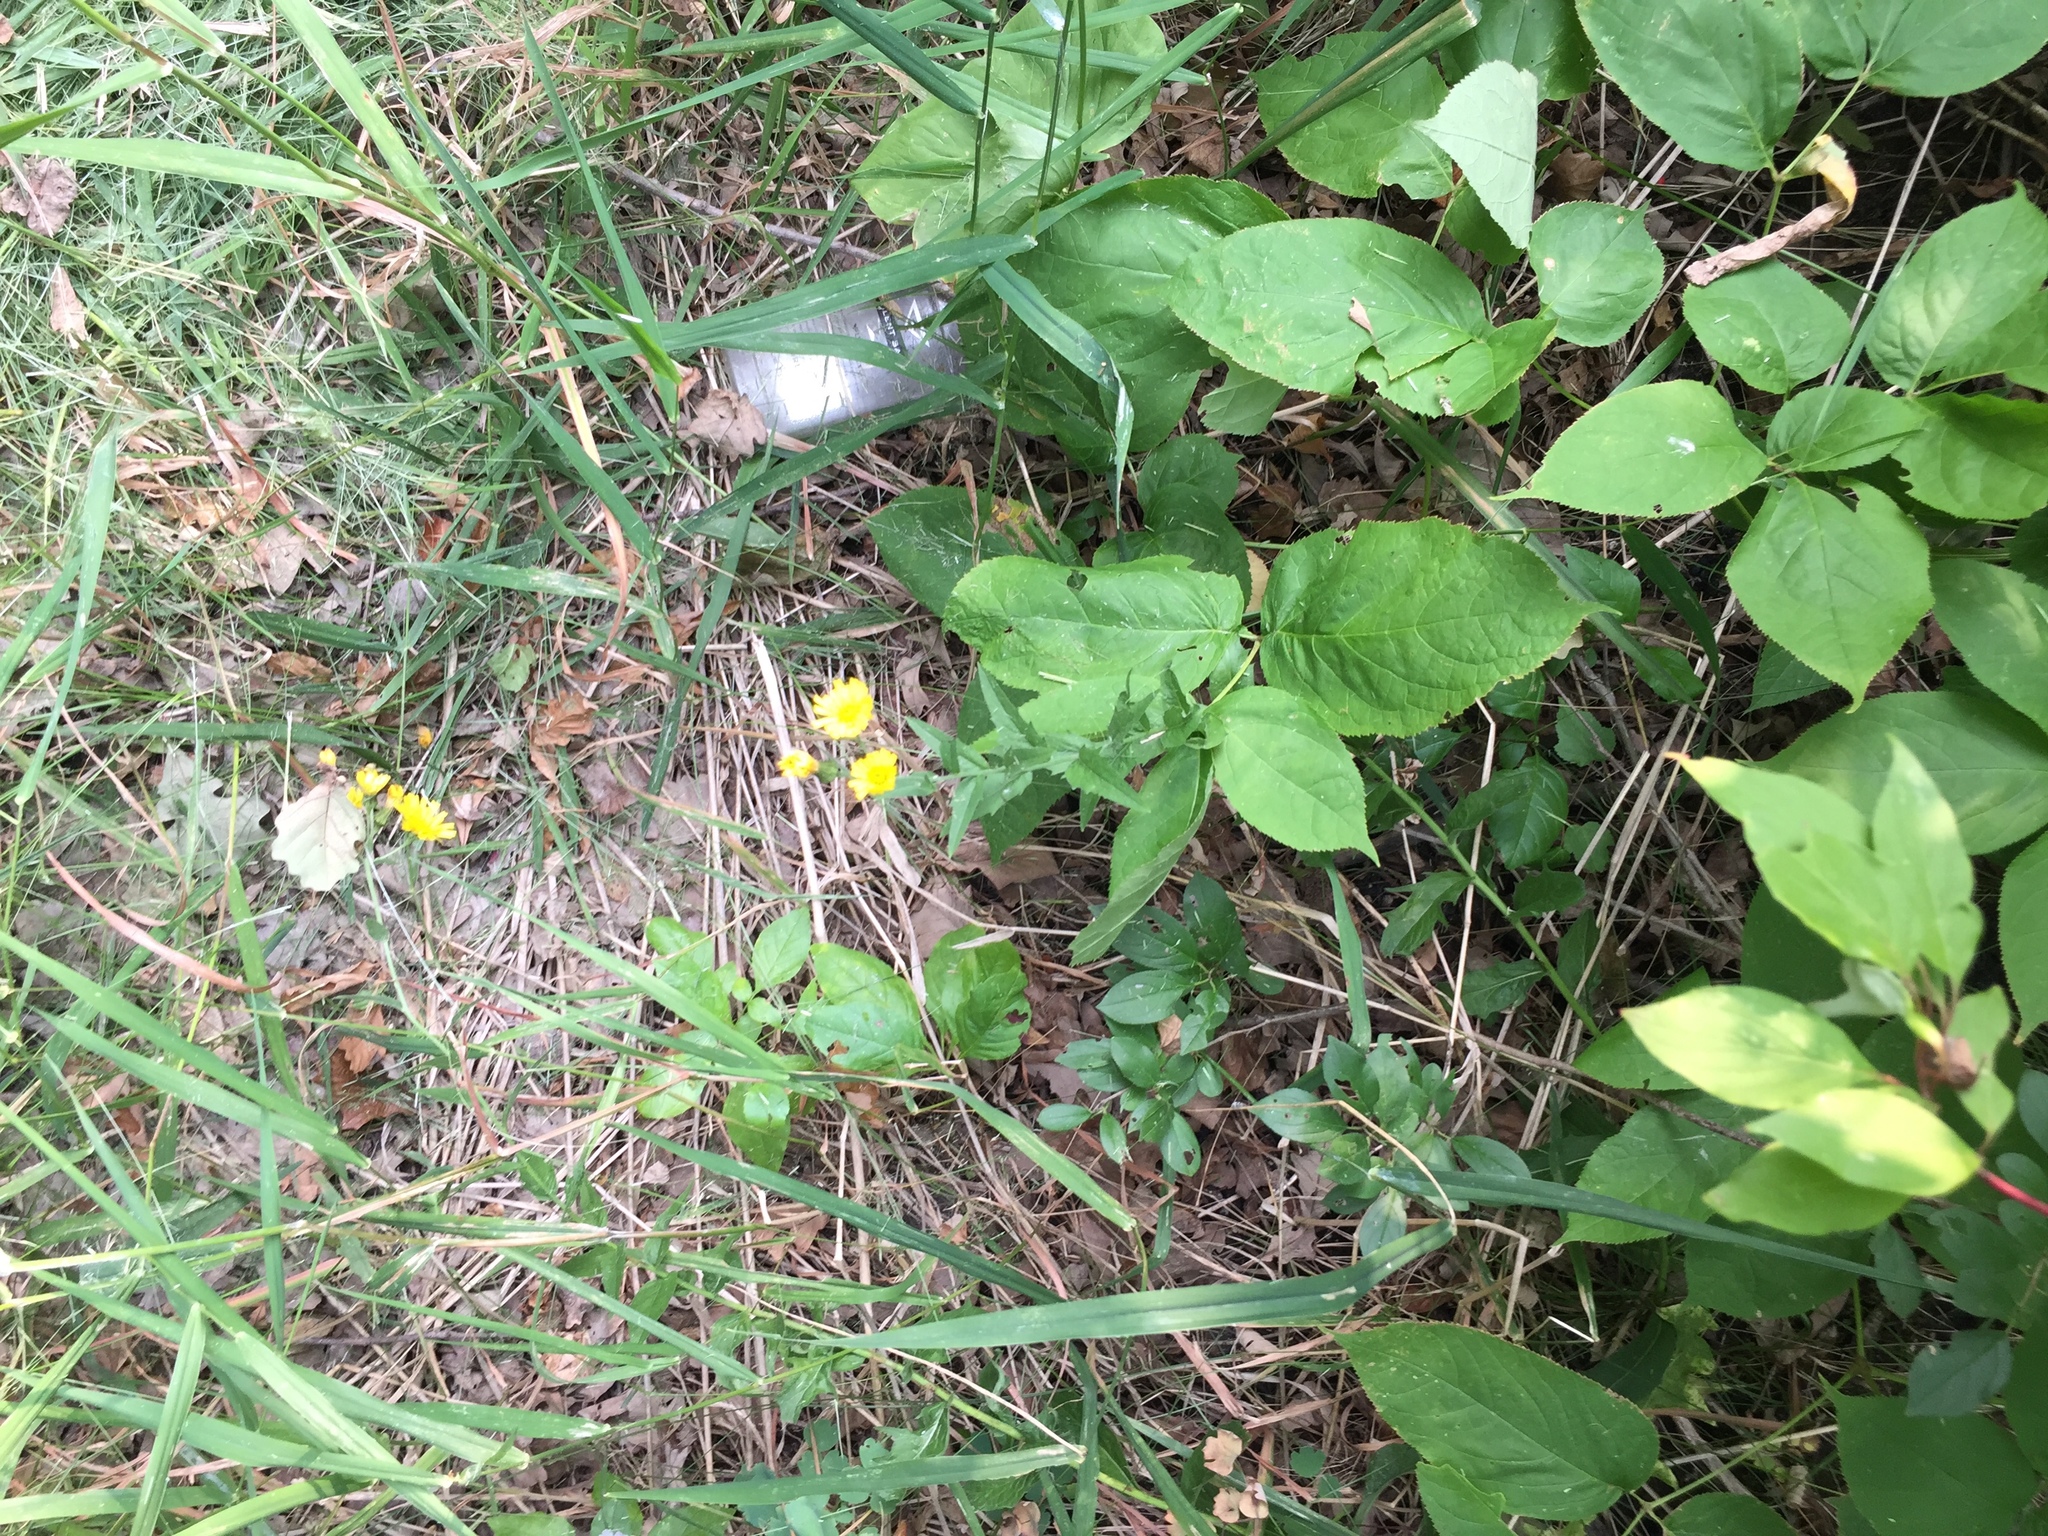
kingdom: Plantae
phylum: Tracheophyta
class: Magnoliopsida
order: Asterales
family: Asteraceae
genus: Hieracium
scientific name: Hieracium umbellatum
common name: Northern hawkweed
